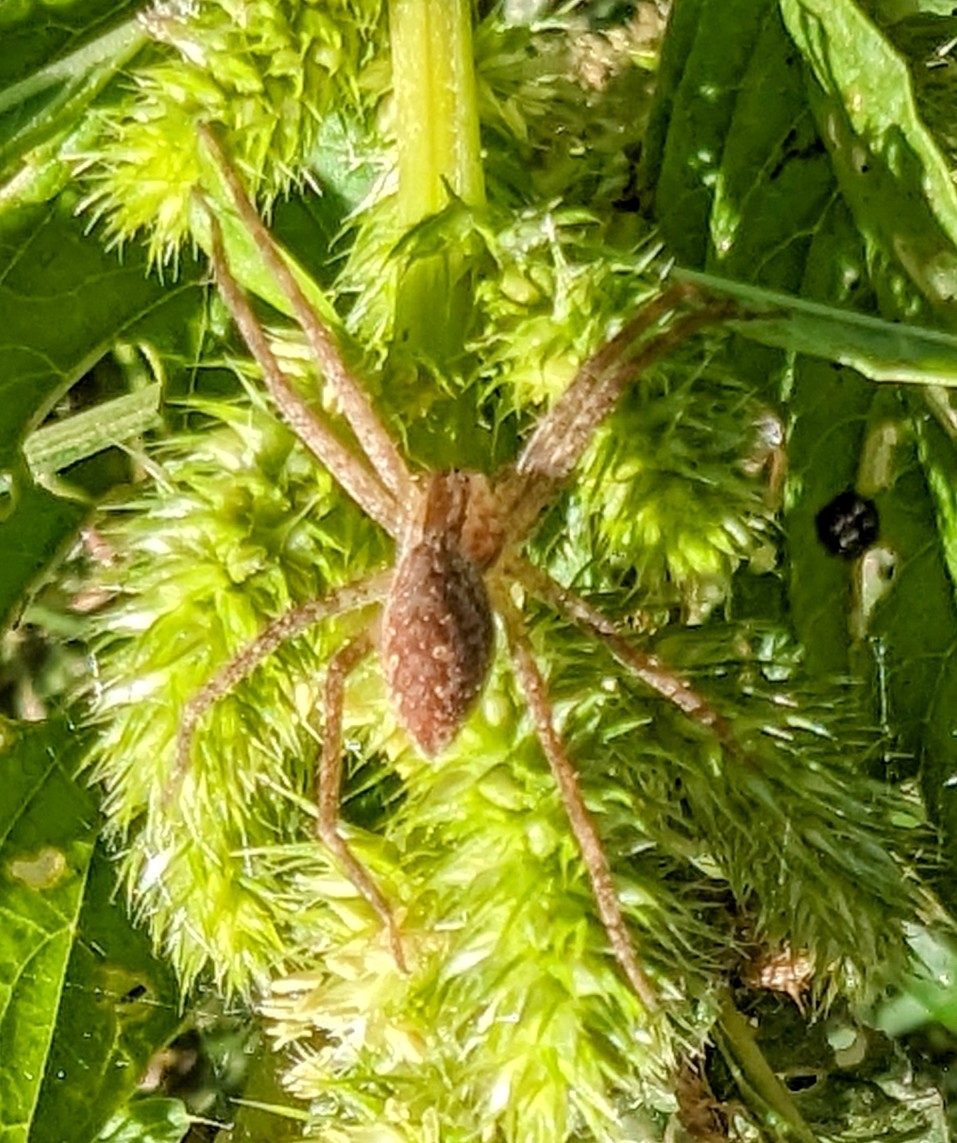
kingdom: Animalia
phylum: Arthropoda
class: Arachnida
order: Araneae
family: Pisauridae
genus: Pisaurina
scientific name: Pisaurina mira
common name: American nursery web spider
